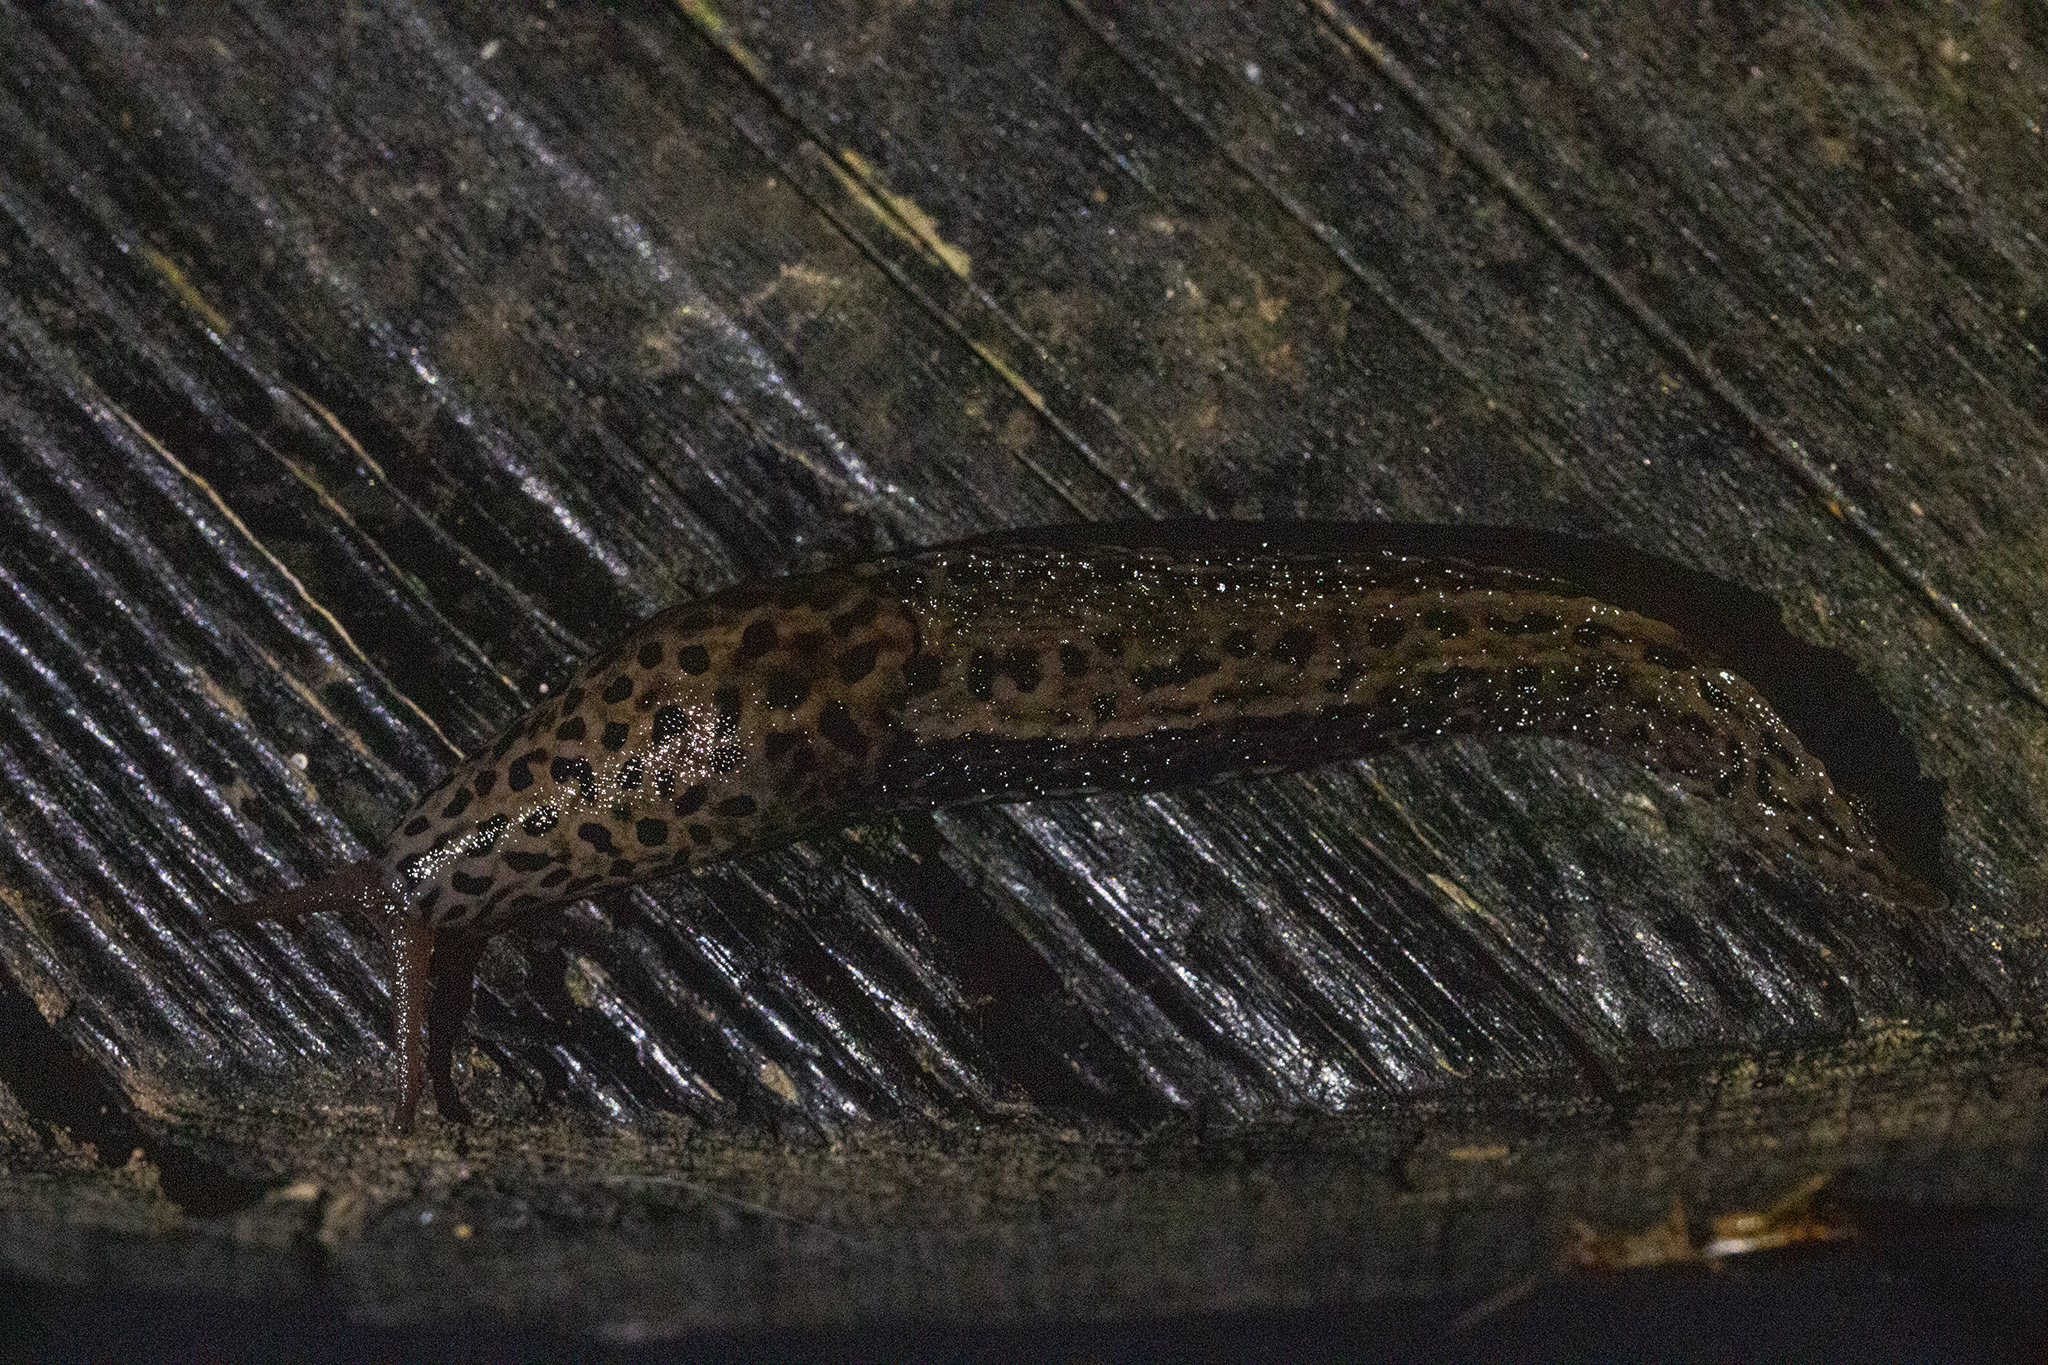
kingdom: Animalia
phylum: Mollusca
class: Gastropoda
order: Stylommatophora
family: Limacidae
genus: Limax
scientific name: Limax maximus
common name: Great grey slug
